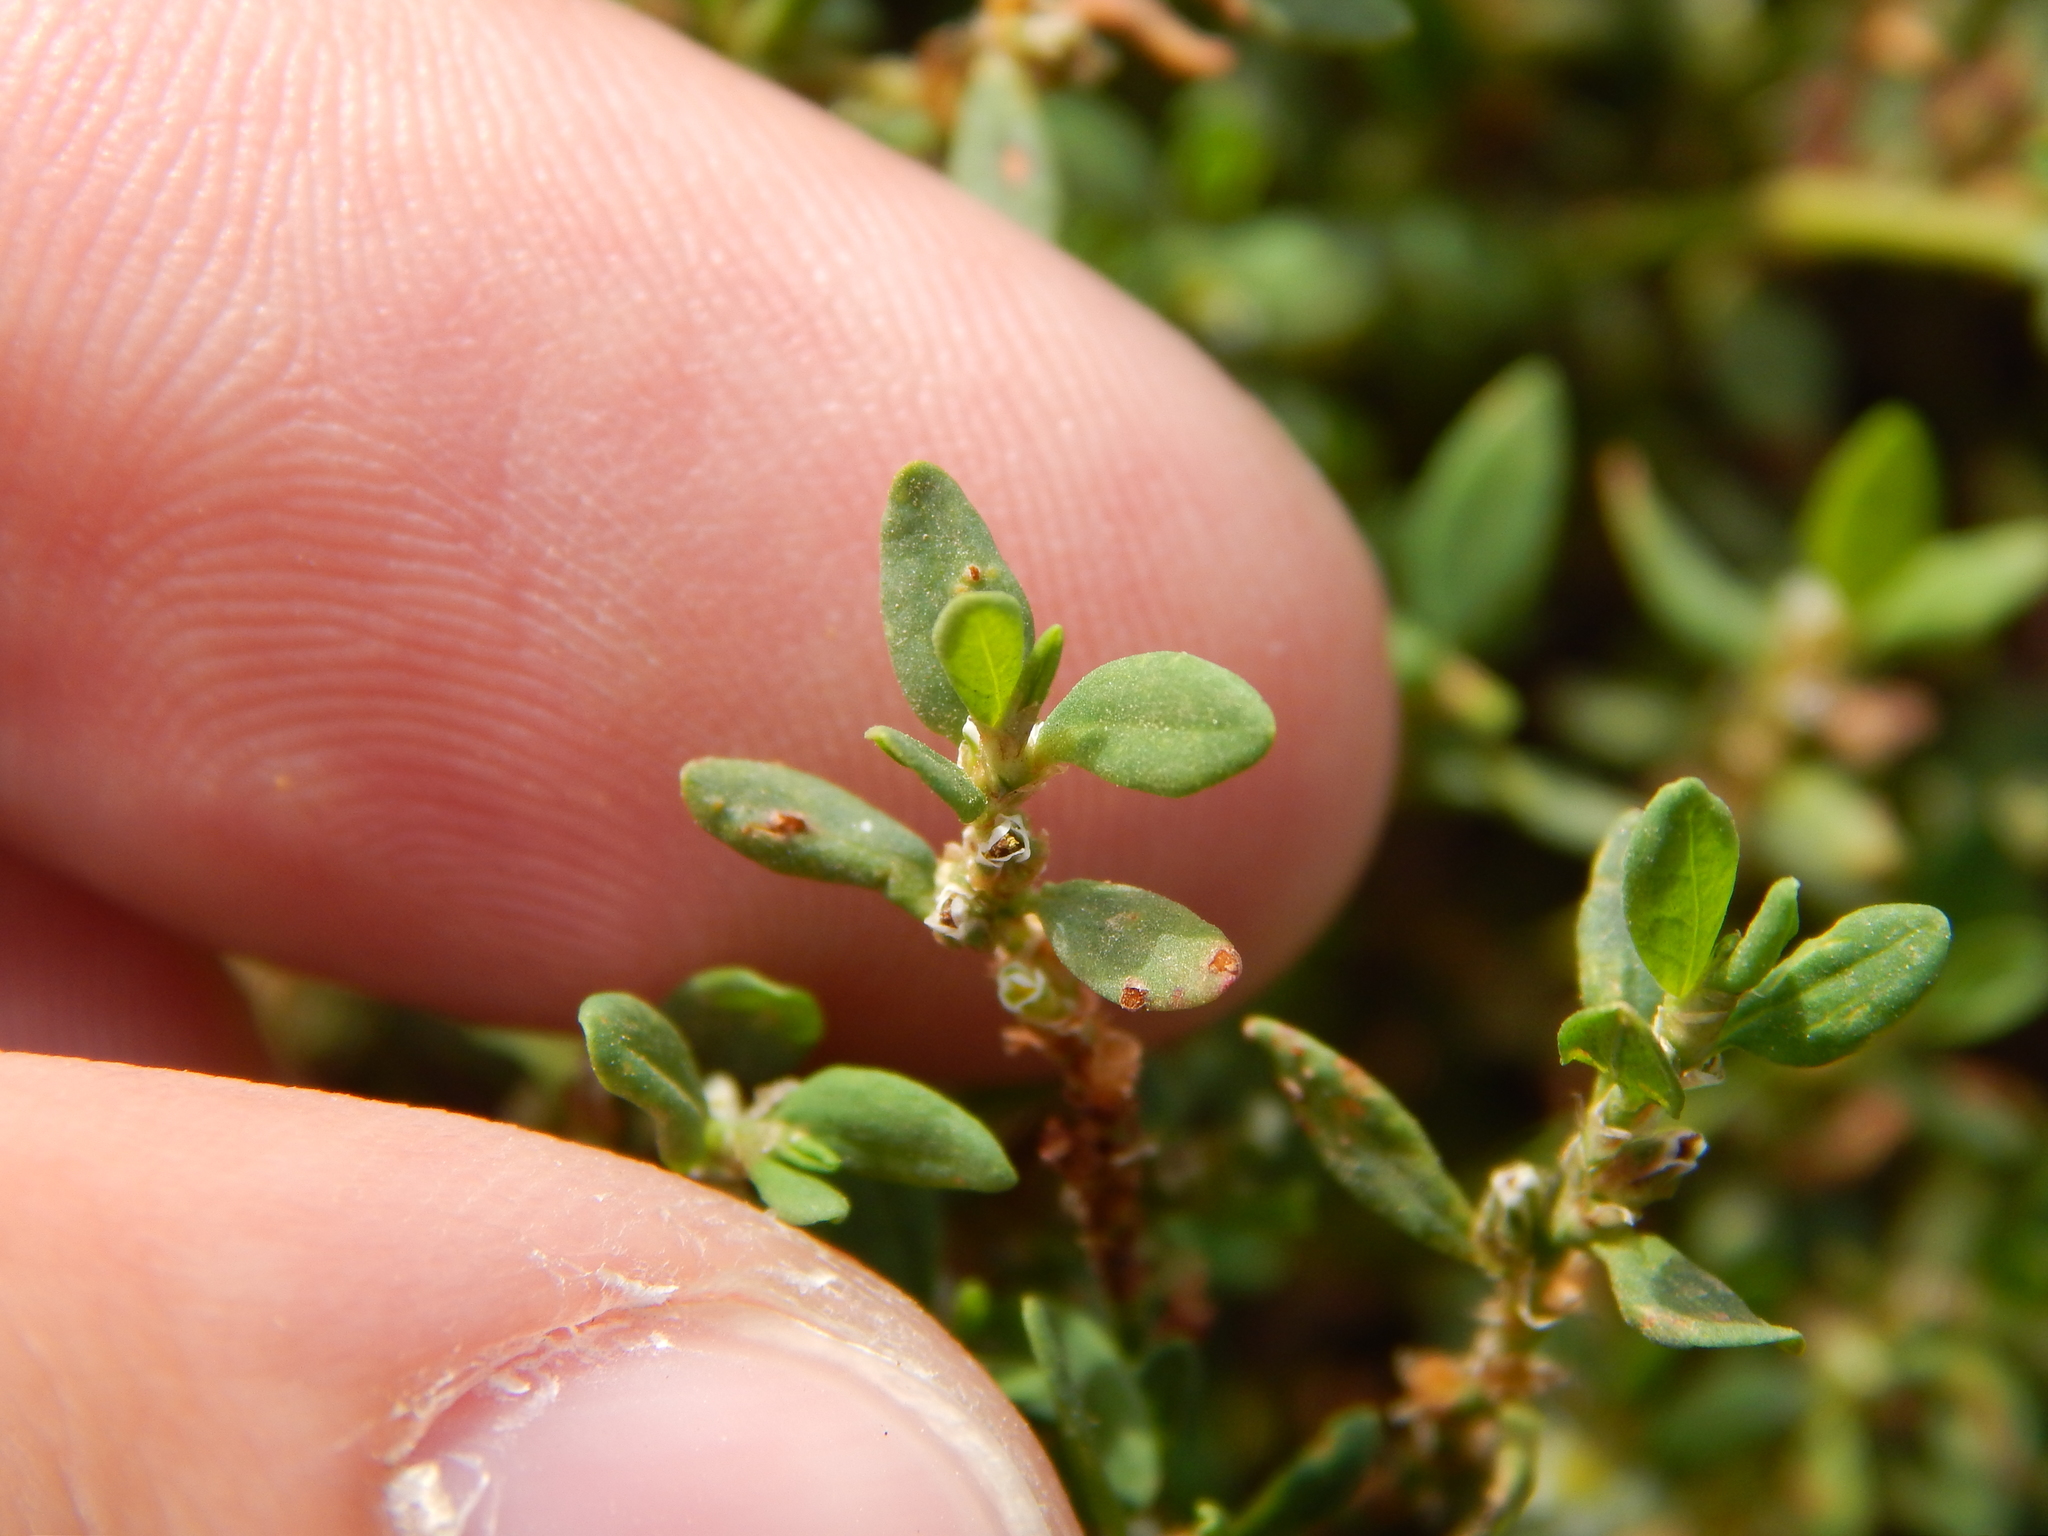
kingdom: Plantae
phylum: Tracheophyta
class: Magnoliopsida
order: Caryophyllales
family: Polygonaceae
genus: Polygonum
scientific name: Polygonum aviculare
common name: Prostrate knotweed
